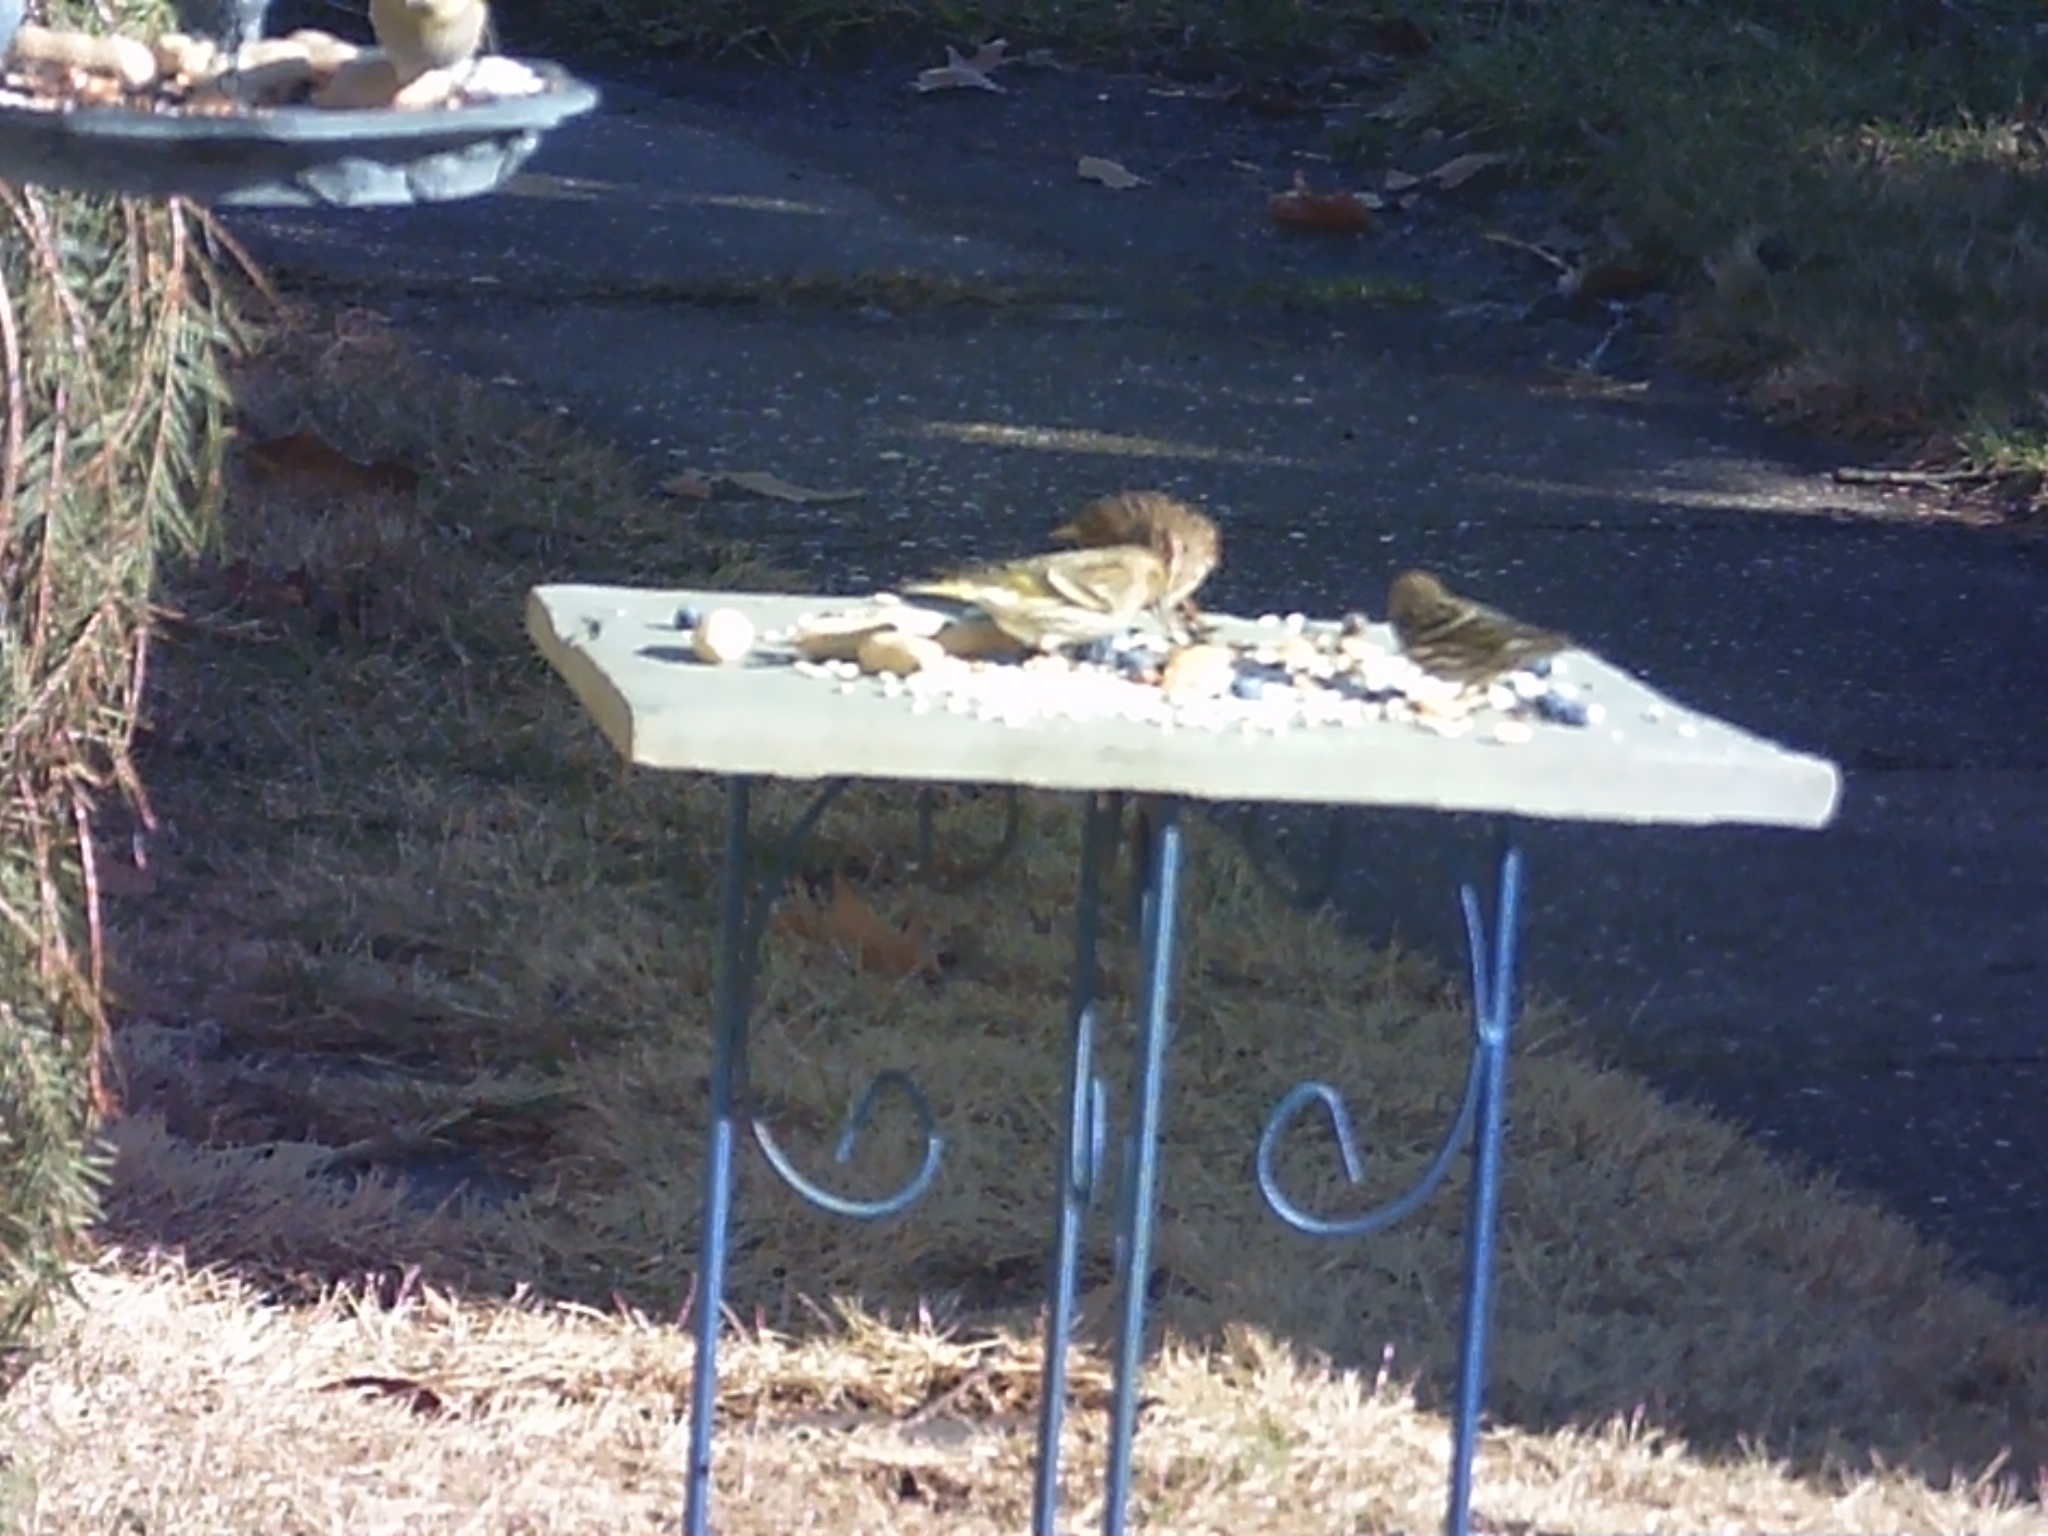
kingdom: Animalia
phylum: Chordata
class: Aves
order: Passeriformes
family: Fringillidae
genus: Spinus
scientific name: Spinus pinus
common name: Pine siskin
